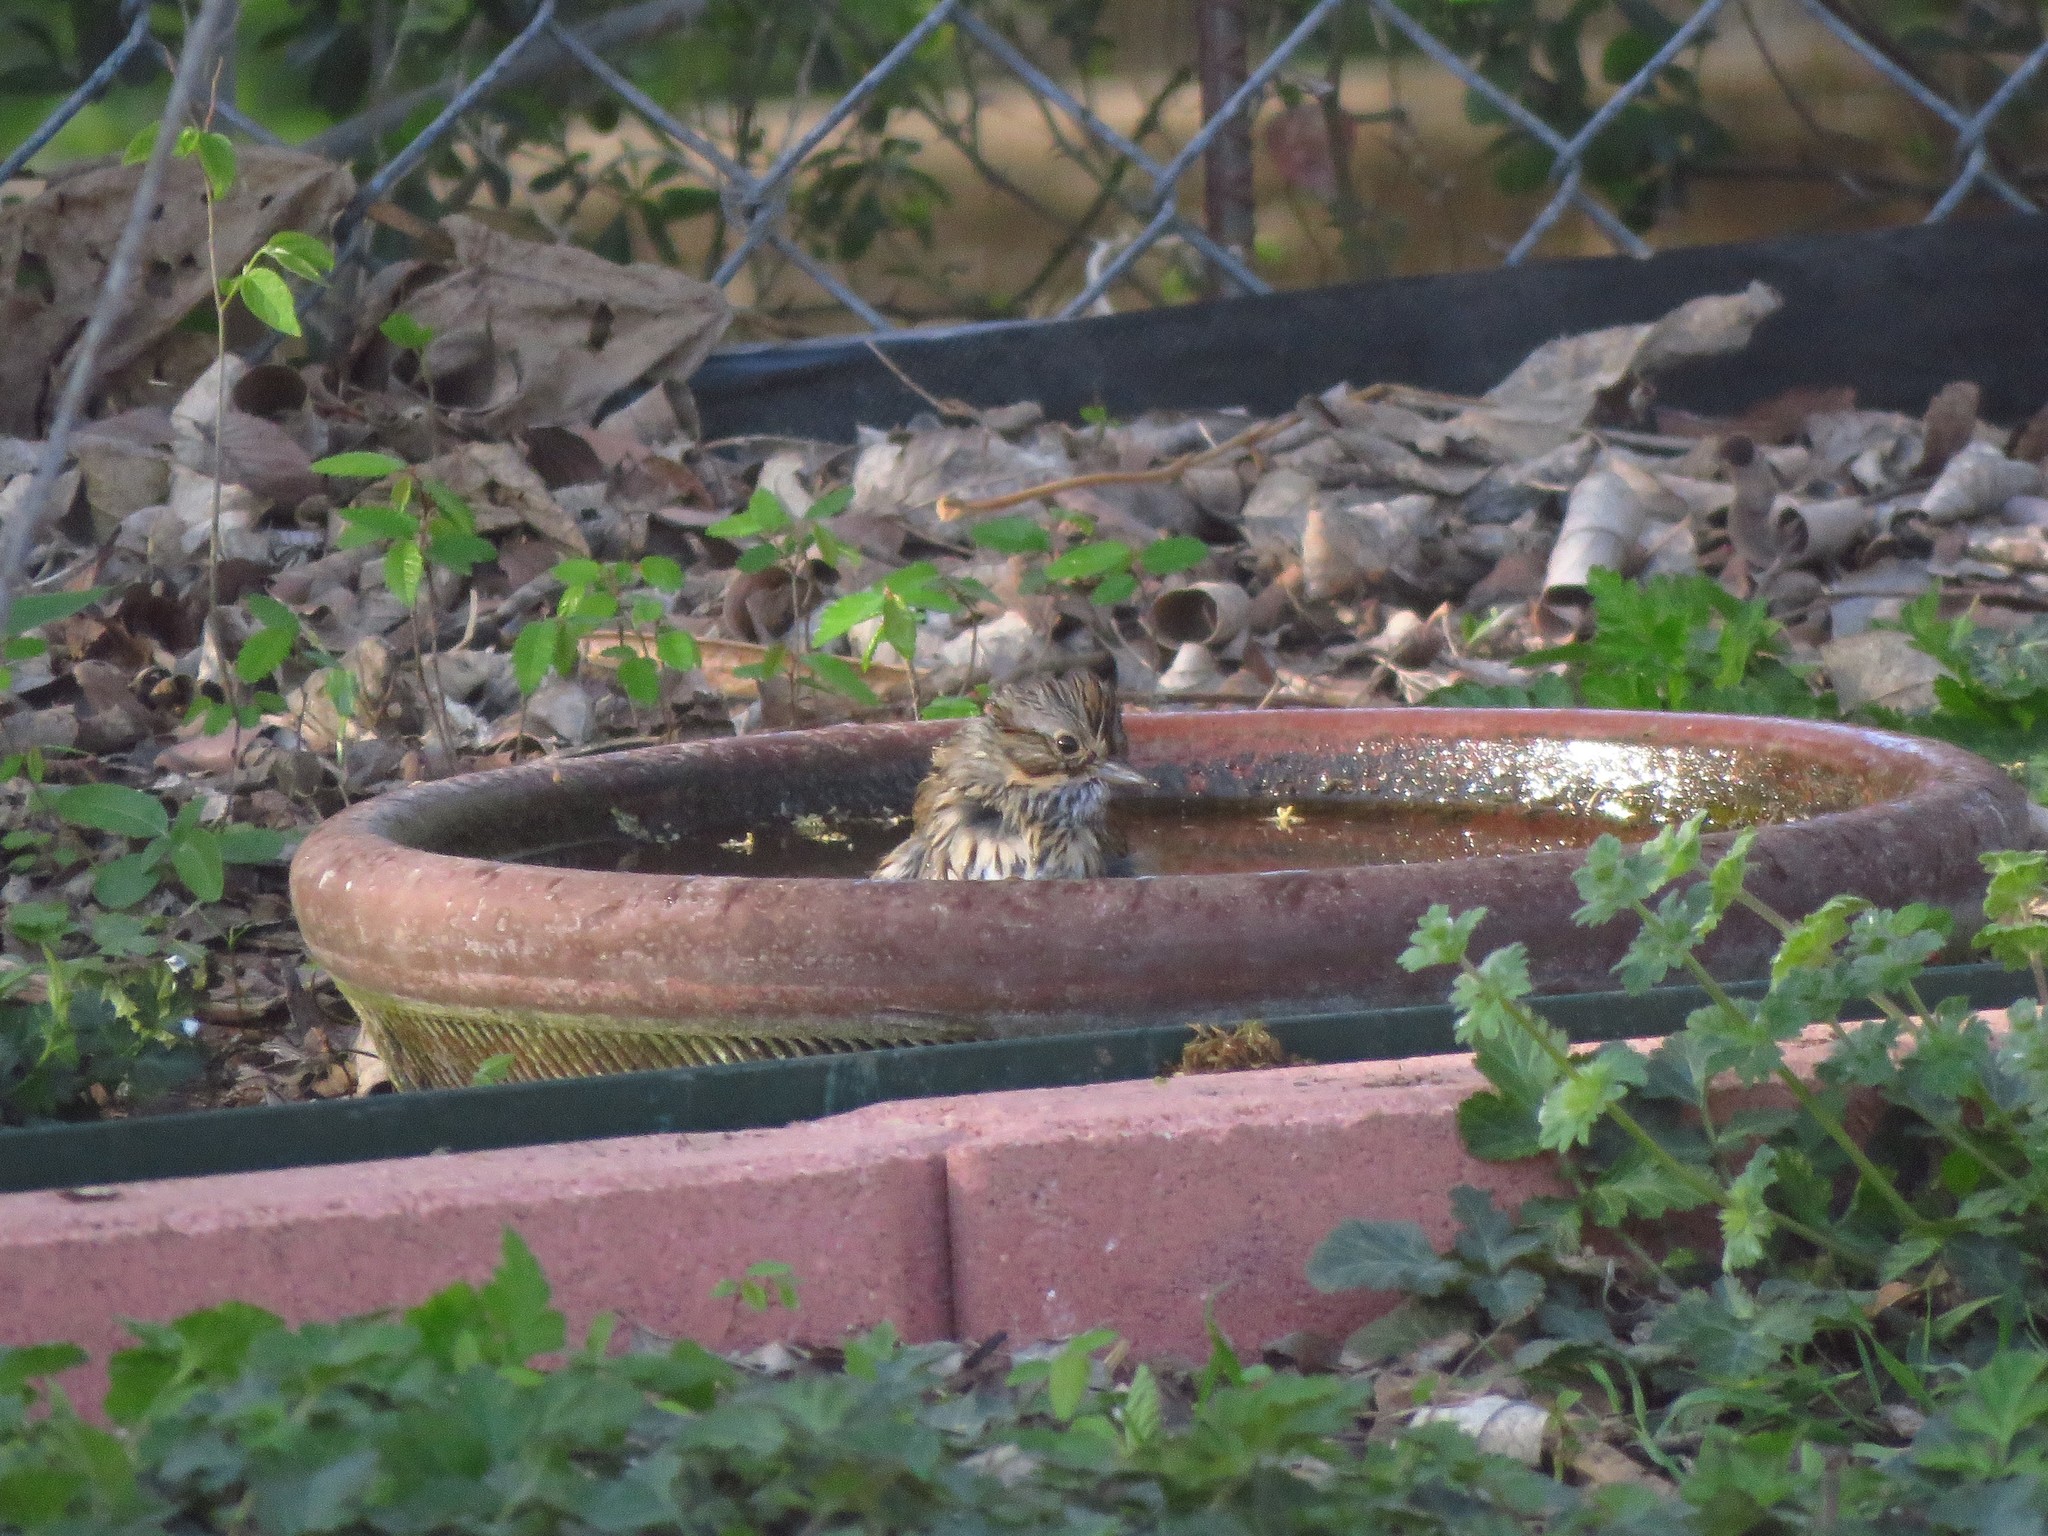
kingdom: Animalia
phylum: Chordata
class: Aves
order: Passeriformes
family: Passerellidae
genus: Melospiza
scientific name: Melospiza lincolnii
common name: Lincoln's sparrow
